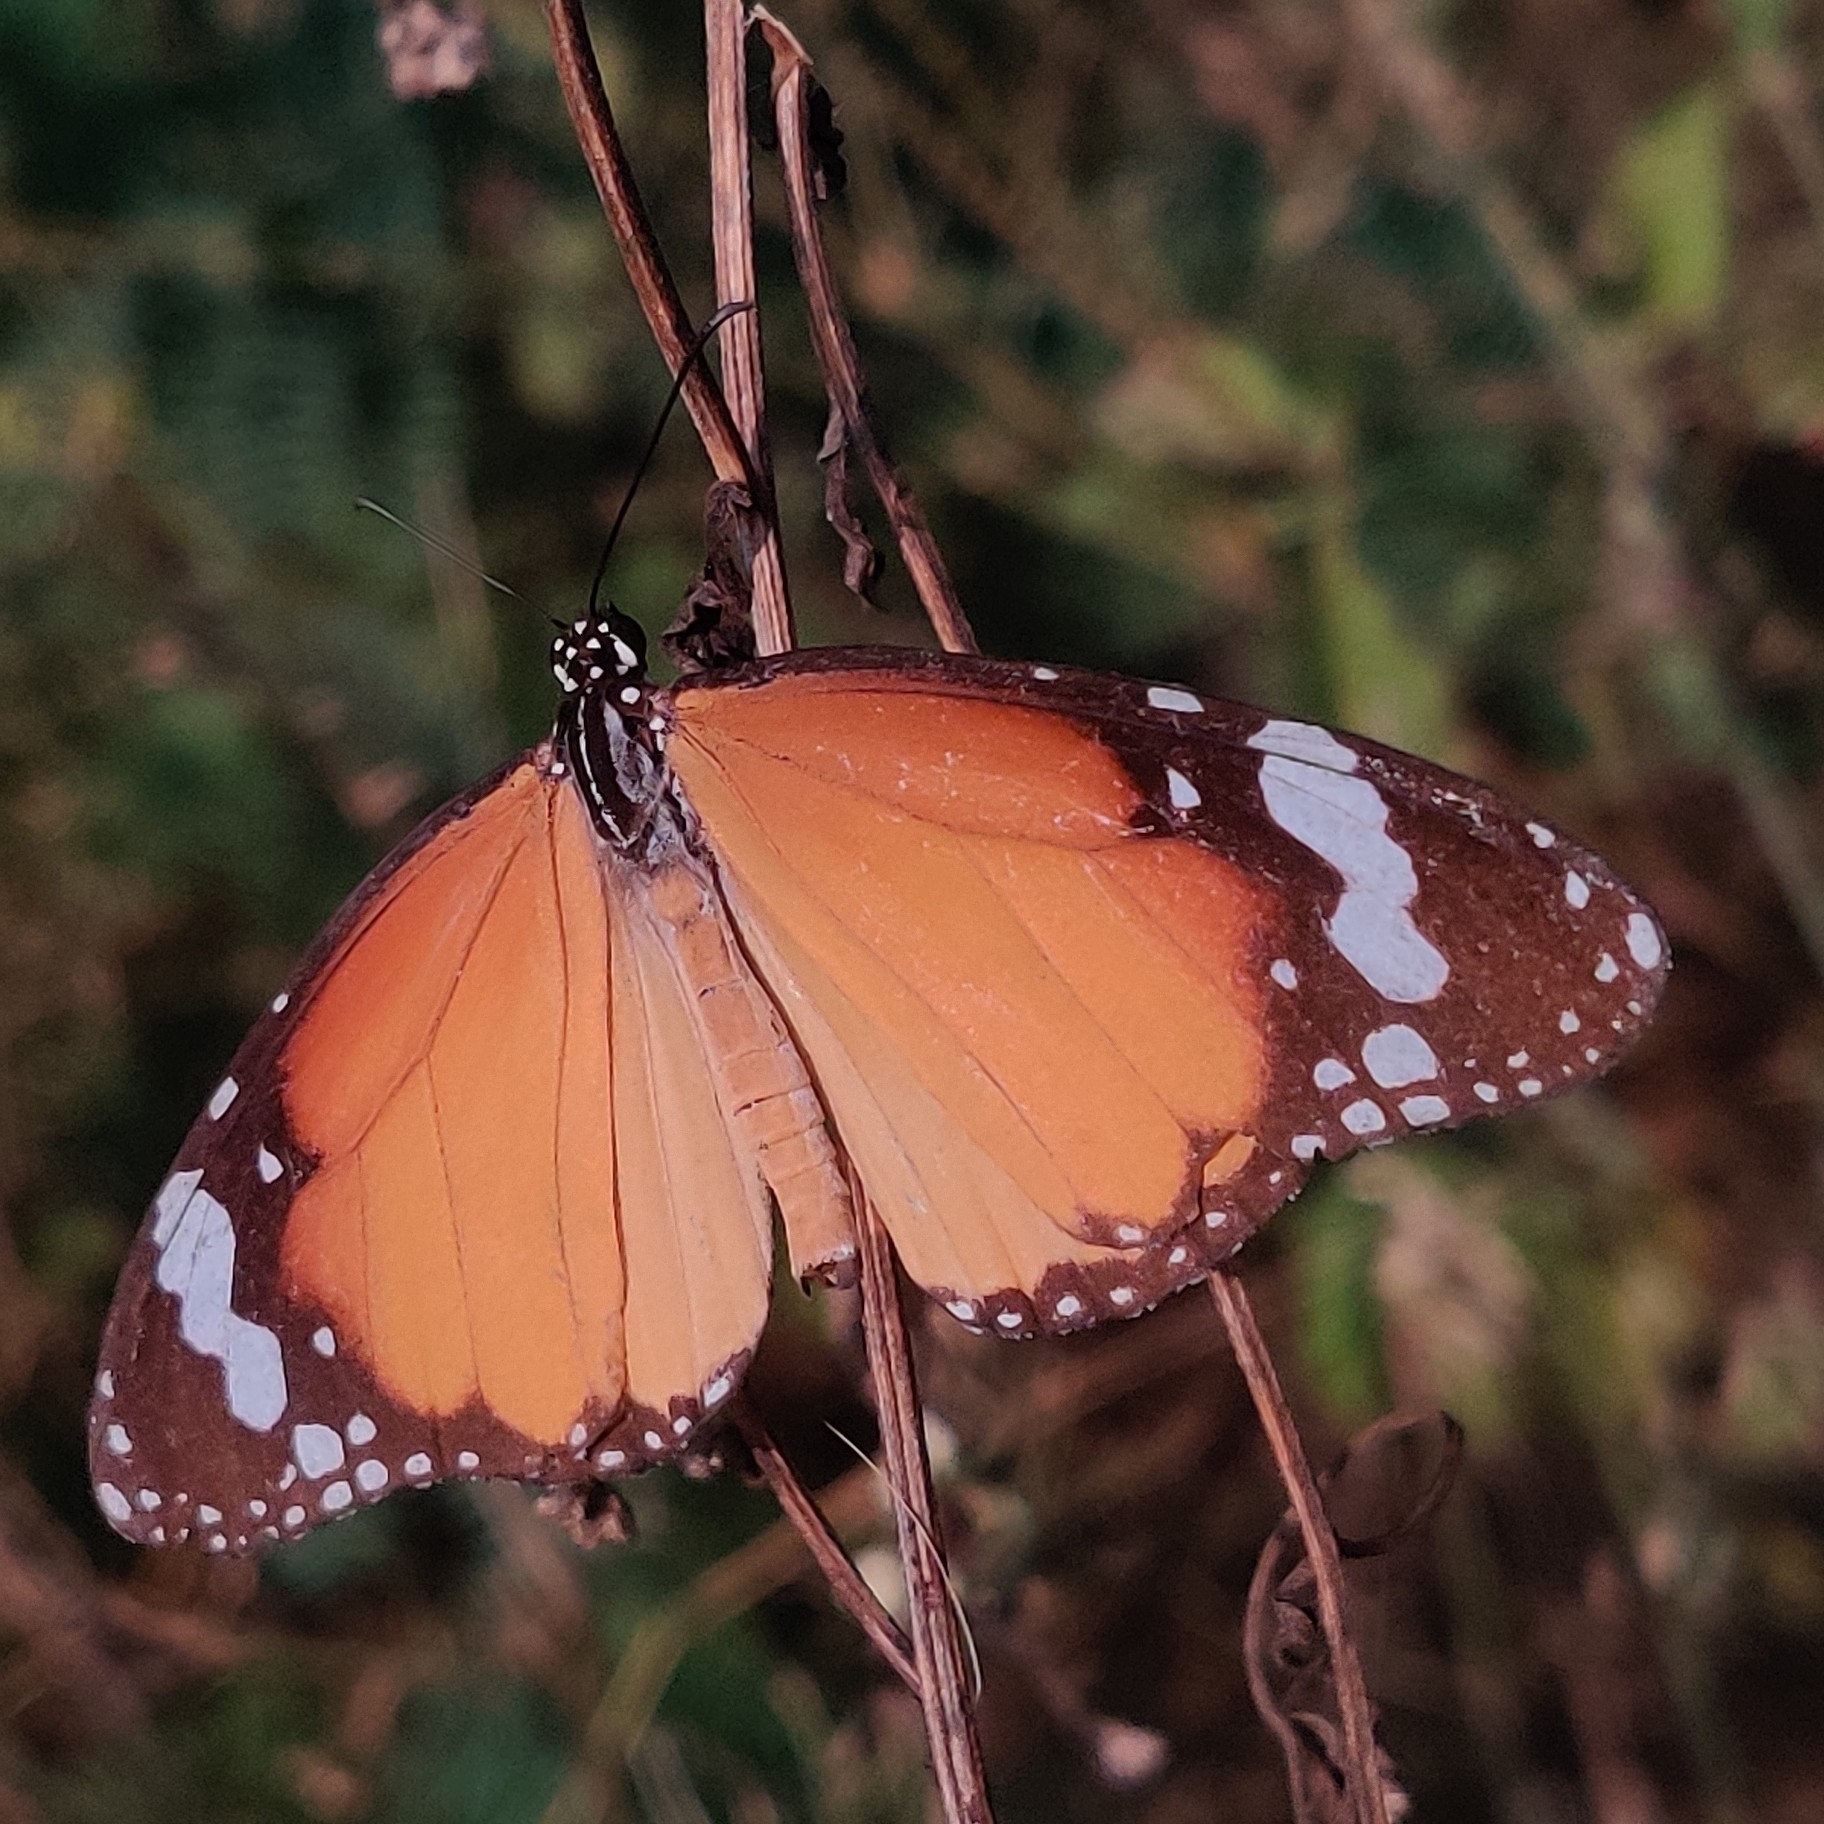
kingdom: Animalia
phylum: Arthropoda
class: Insecta
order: Lepidoptera
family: Nymphalidae
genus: Danaus
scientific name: Danaus chrysippus
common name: Plain tiger
